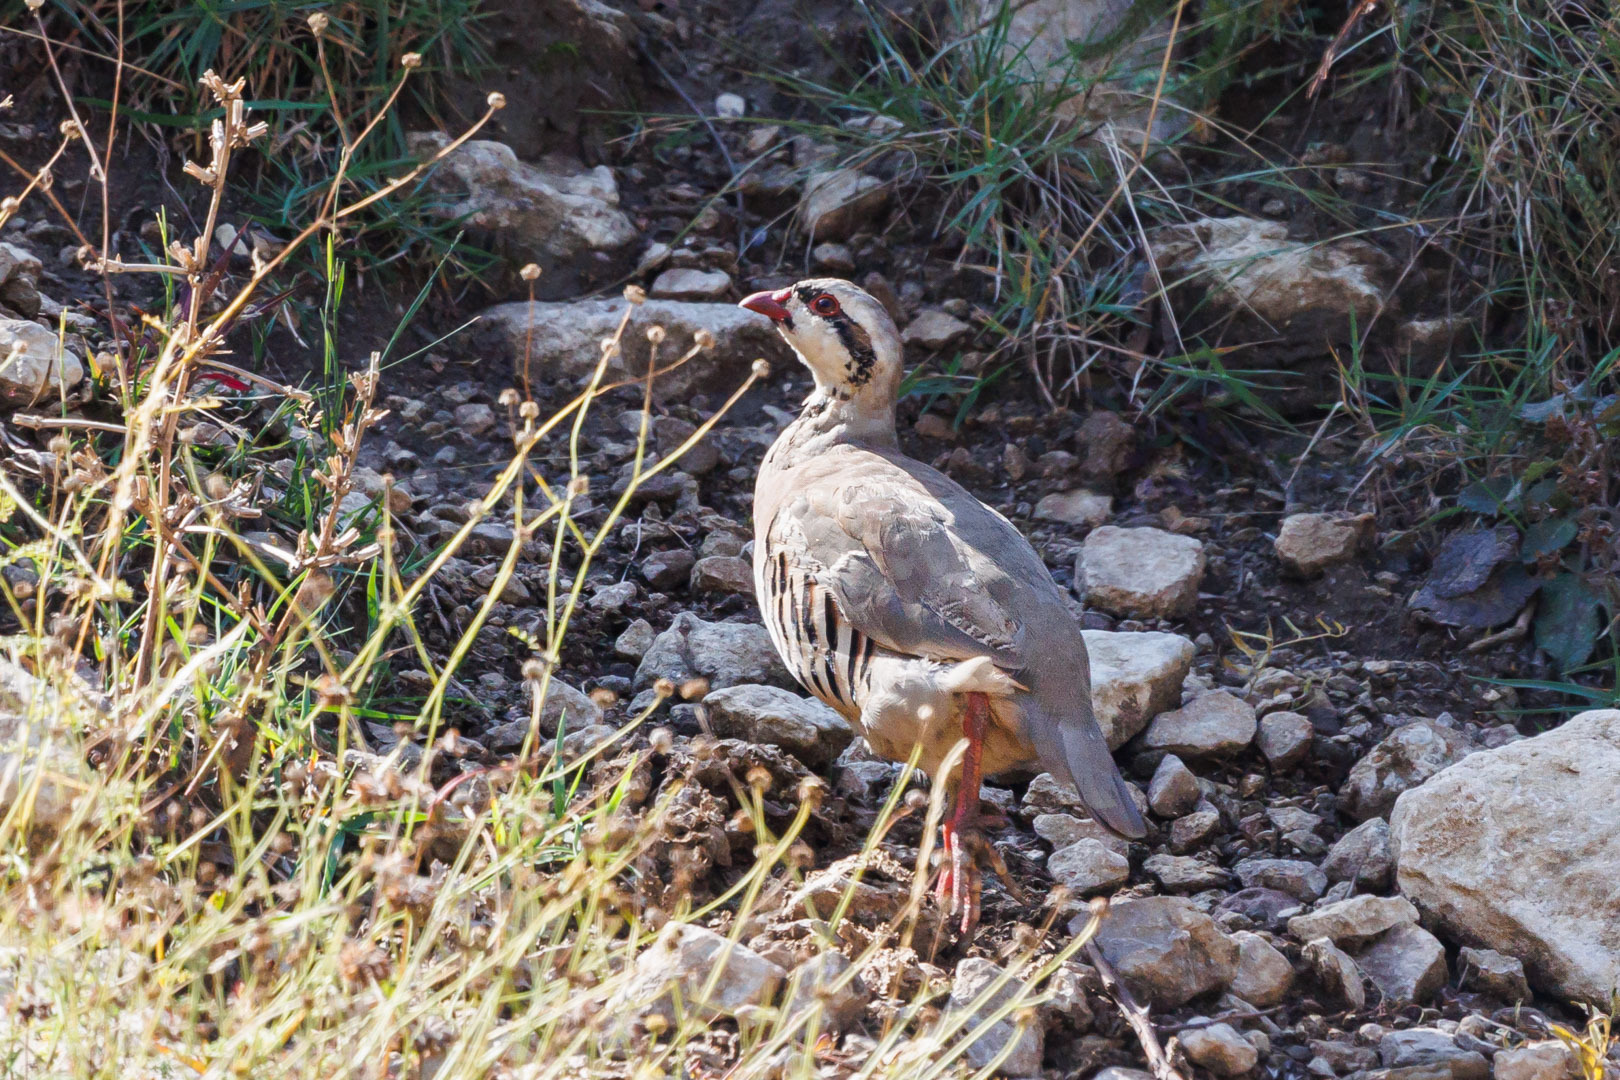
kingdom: Animalia
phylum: Chordata
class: Aves
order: Galliformes
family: Phasianidae
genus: Alectoris
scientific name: Alectoris chukar
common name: Chukar
